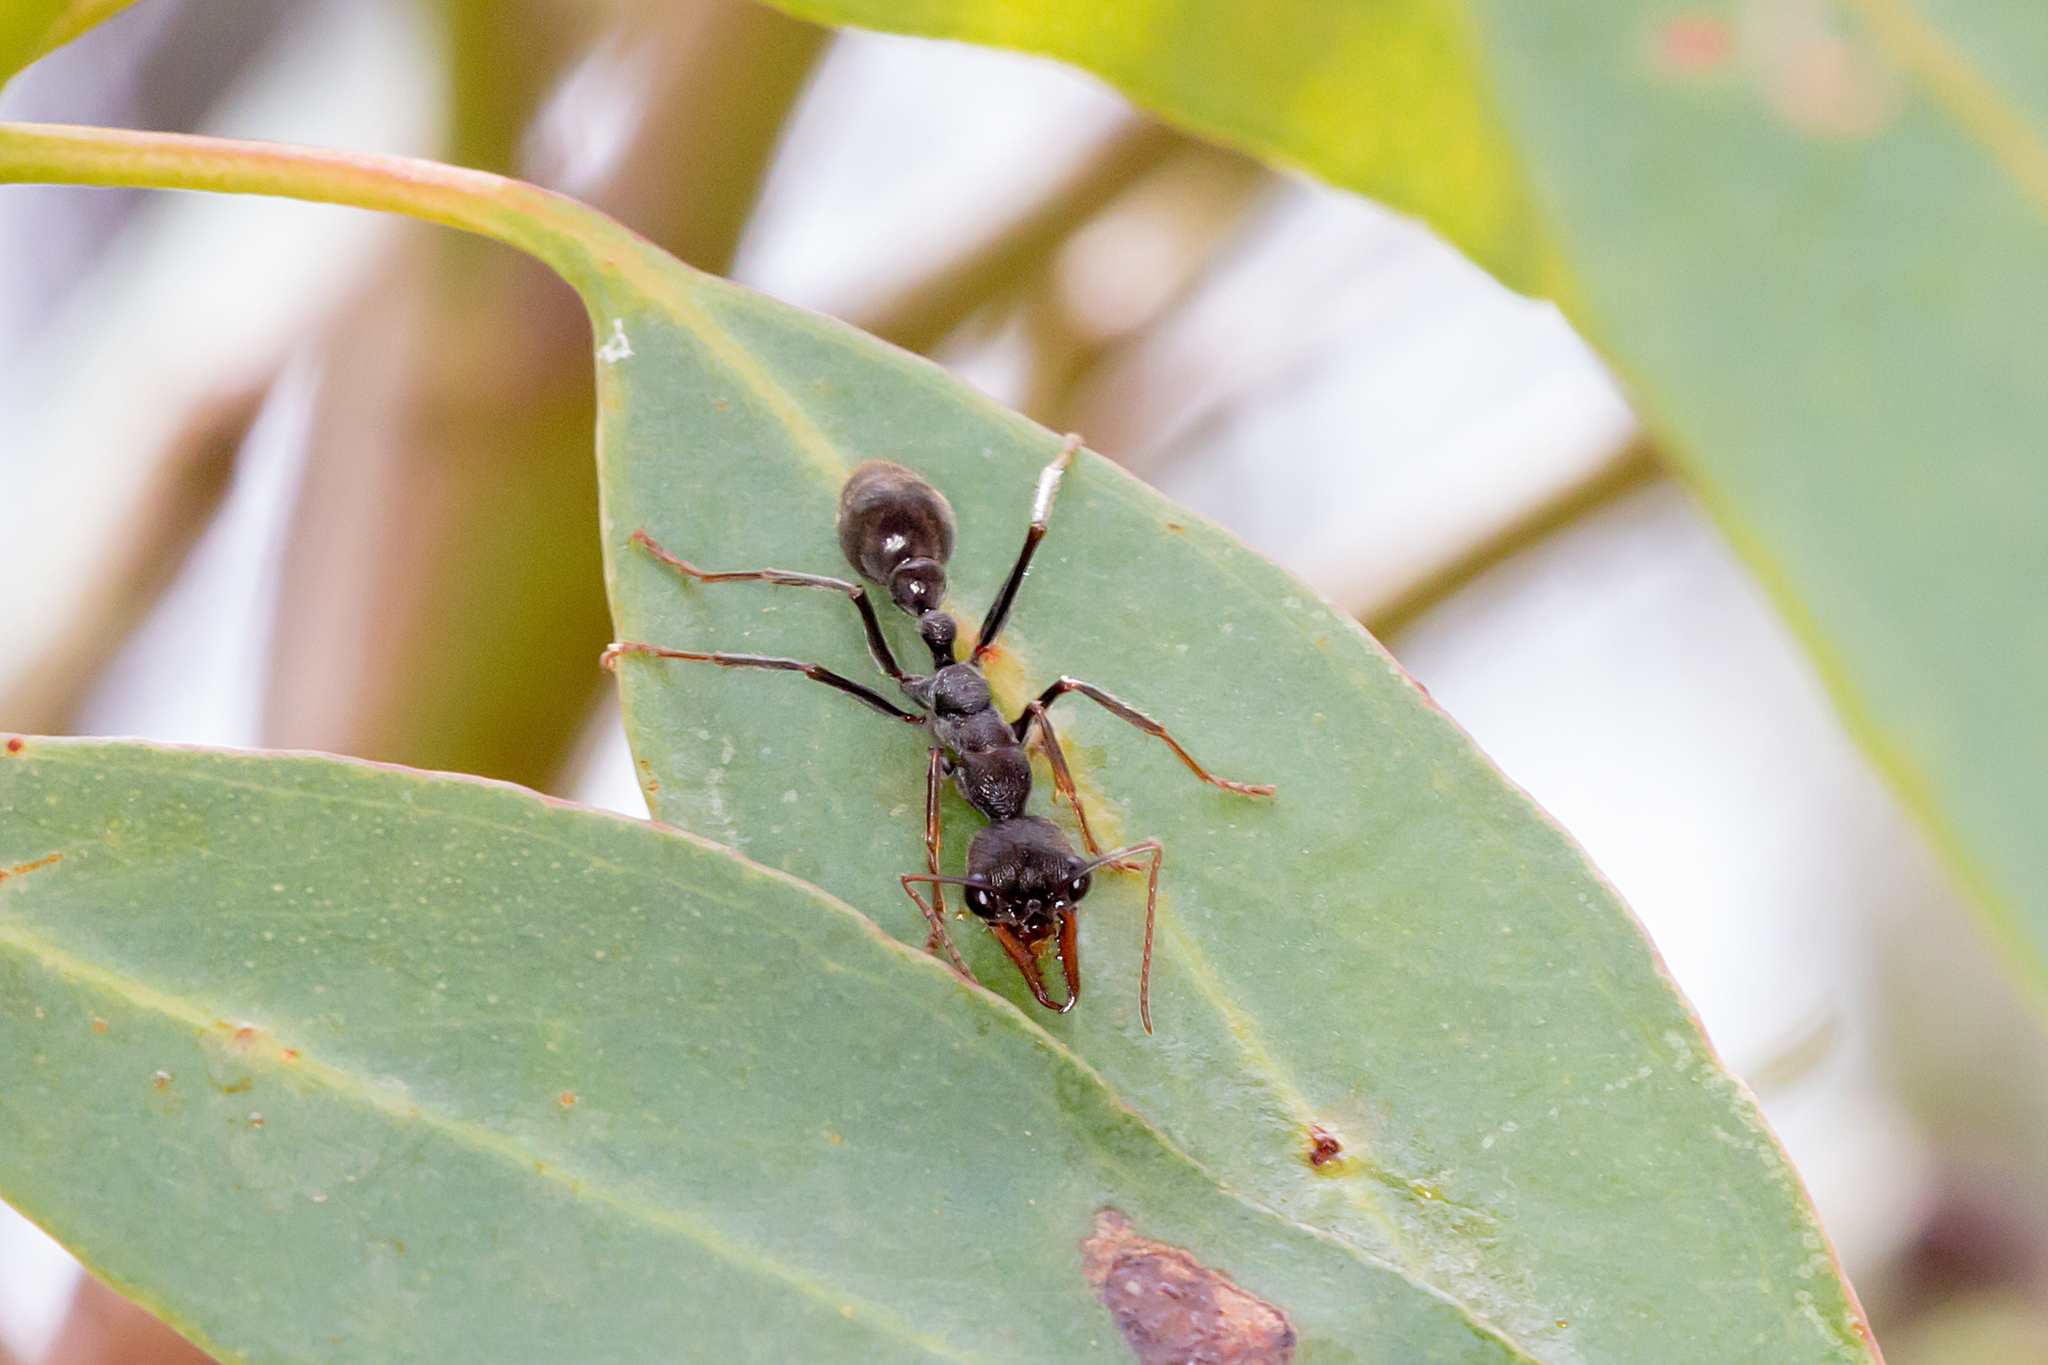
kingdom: Animalia
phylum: Arthropoda
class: Insecta
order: Hymenoptera
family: Formicidae
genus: Myrmecia
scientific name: Myrmecia pyriformis
